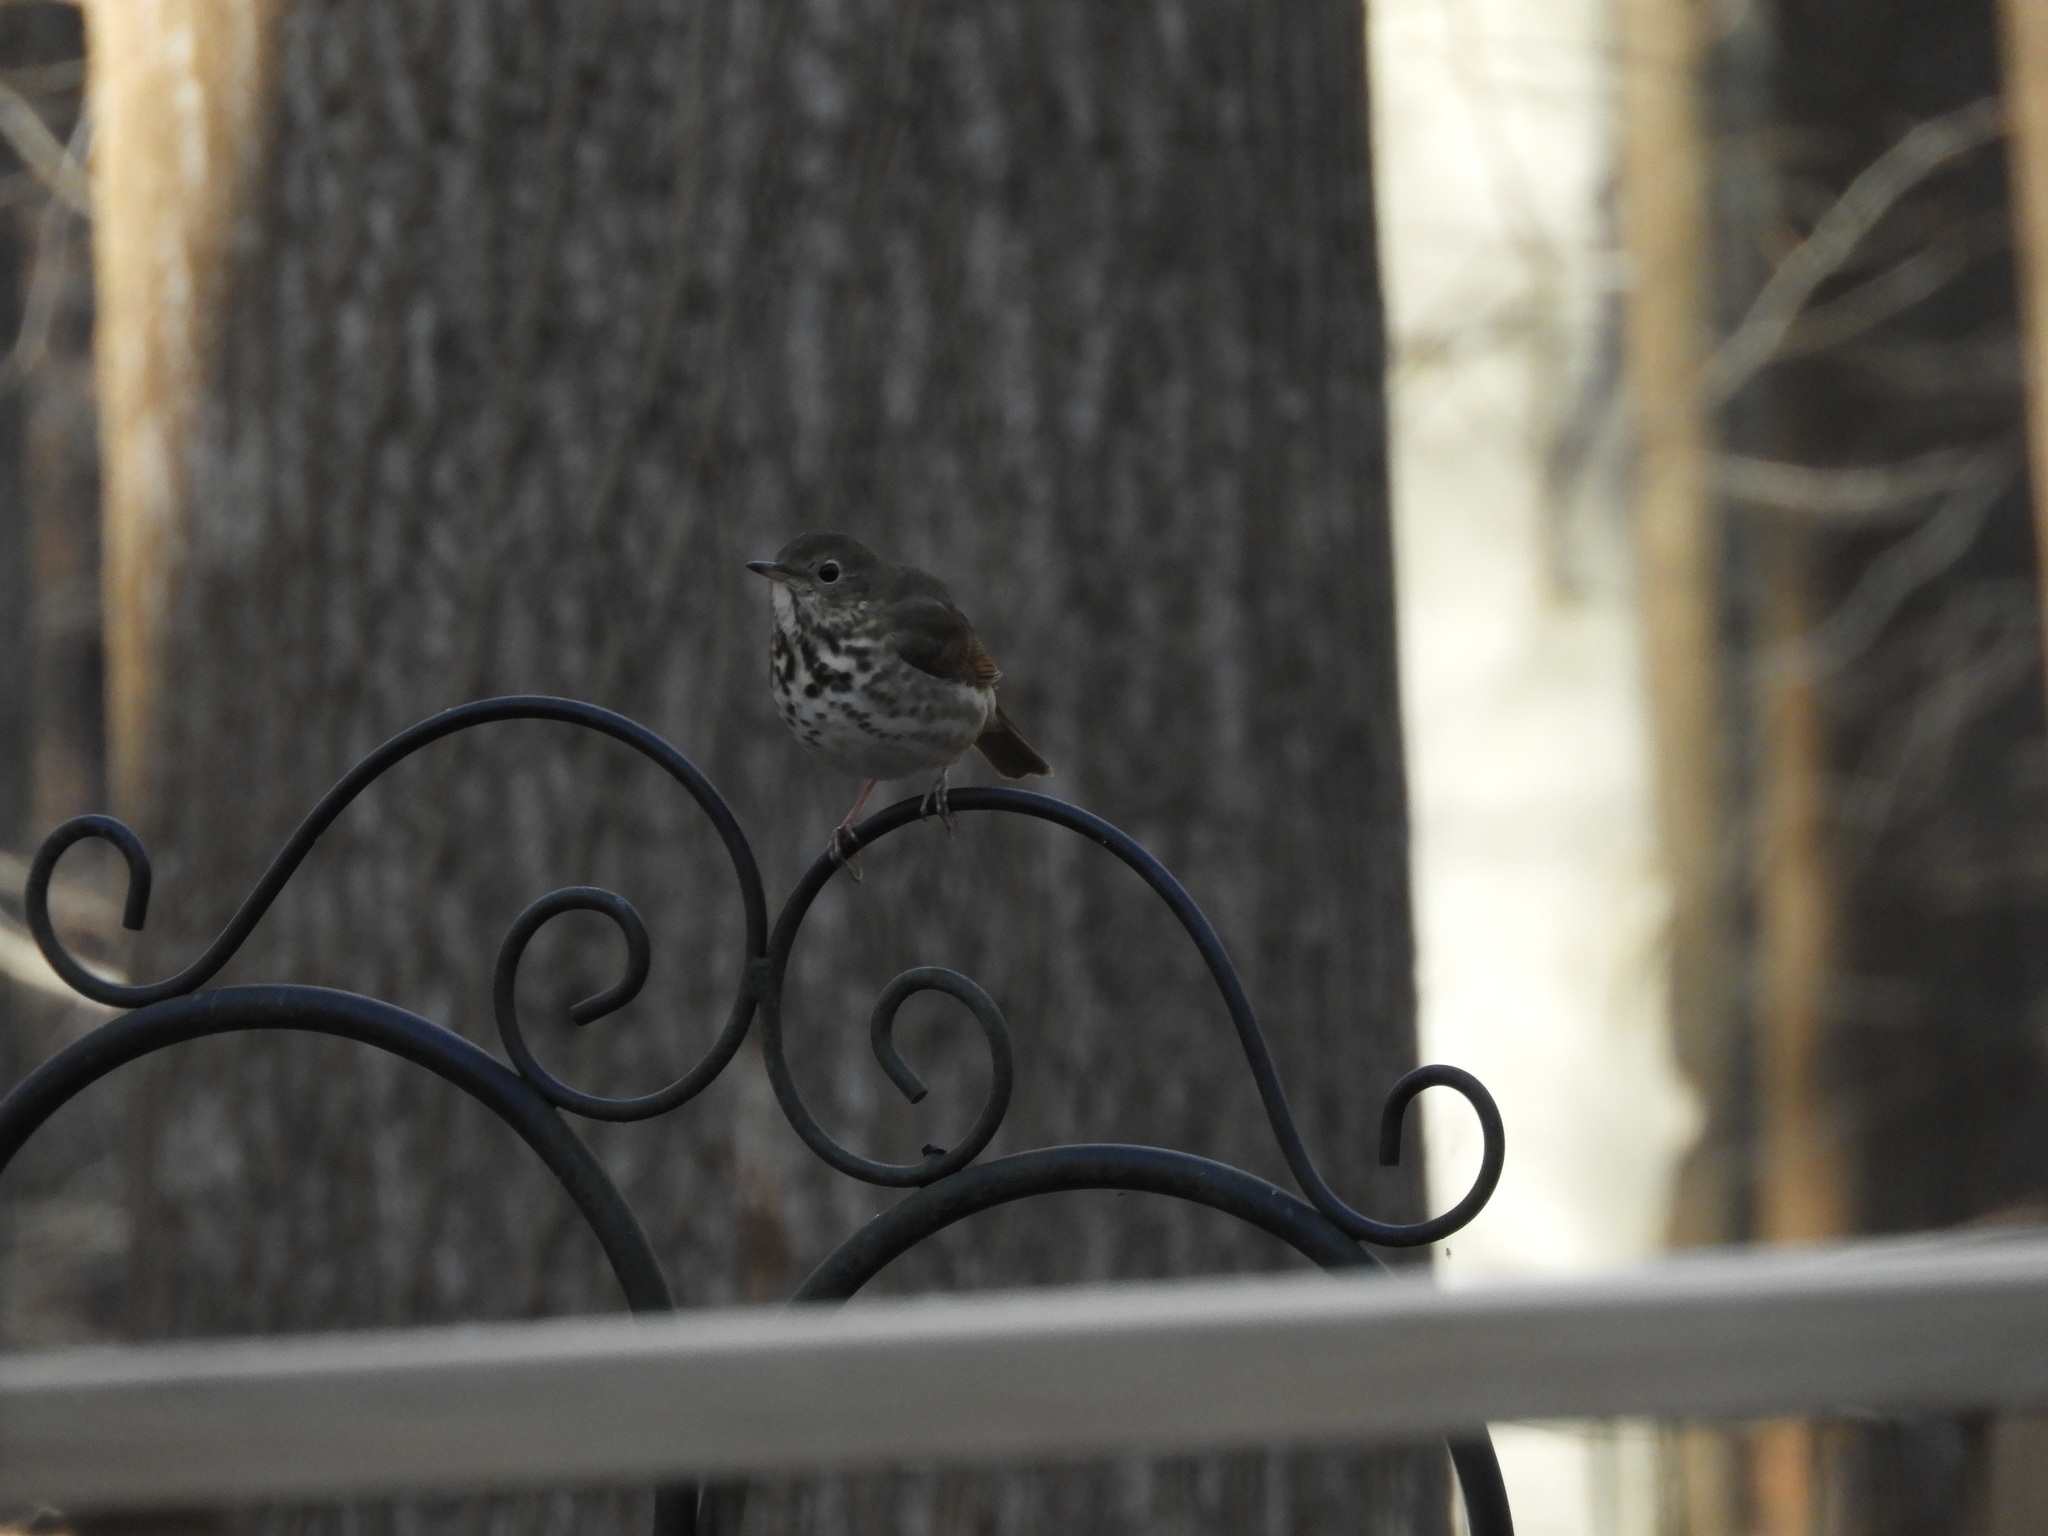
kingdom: Animalia
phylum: Chordata
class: Aves
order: Passeriformes
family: Turdidae
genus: Catharus
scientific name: Catharus guttatus
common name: Hermit thrush
